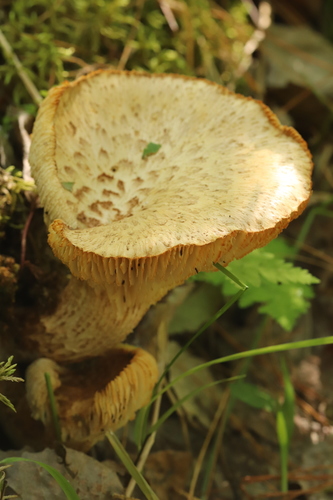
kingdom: Fungi
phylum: Basidiomycota
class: Agaricomycetes
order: Gloeophyllales
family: Gloeophyllaceae
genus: Neolentinus
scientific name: Neolentinus lepideus
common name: Scaly sawgill
